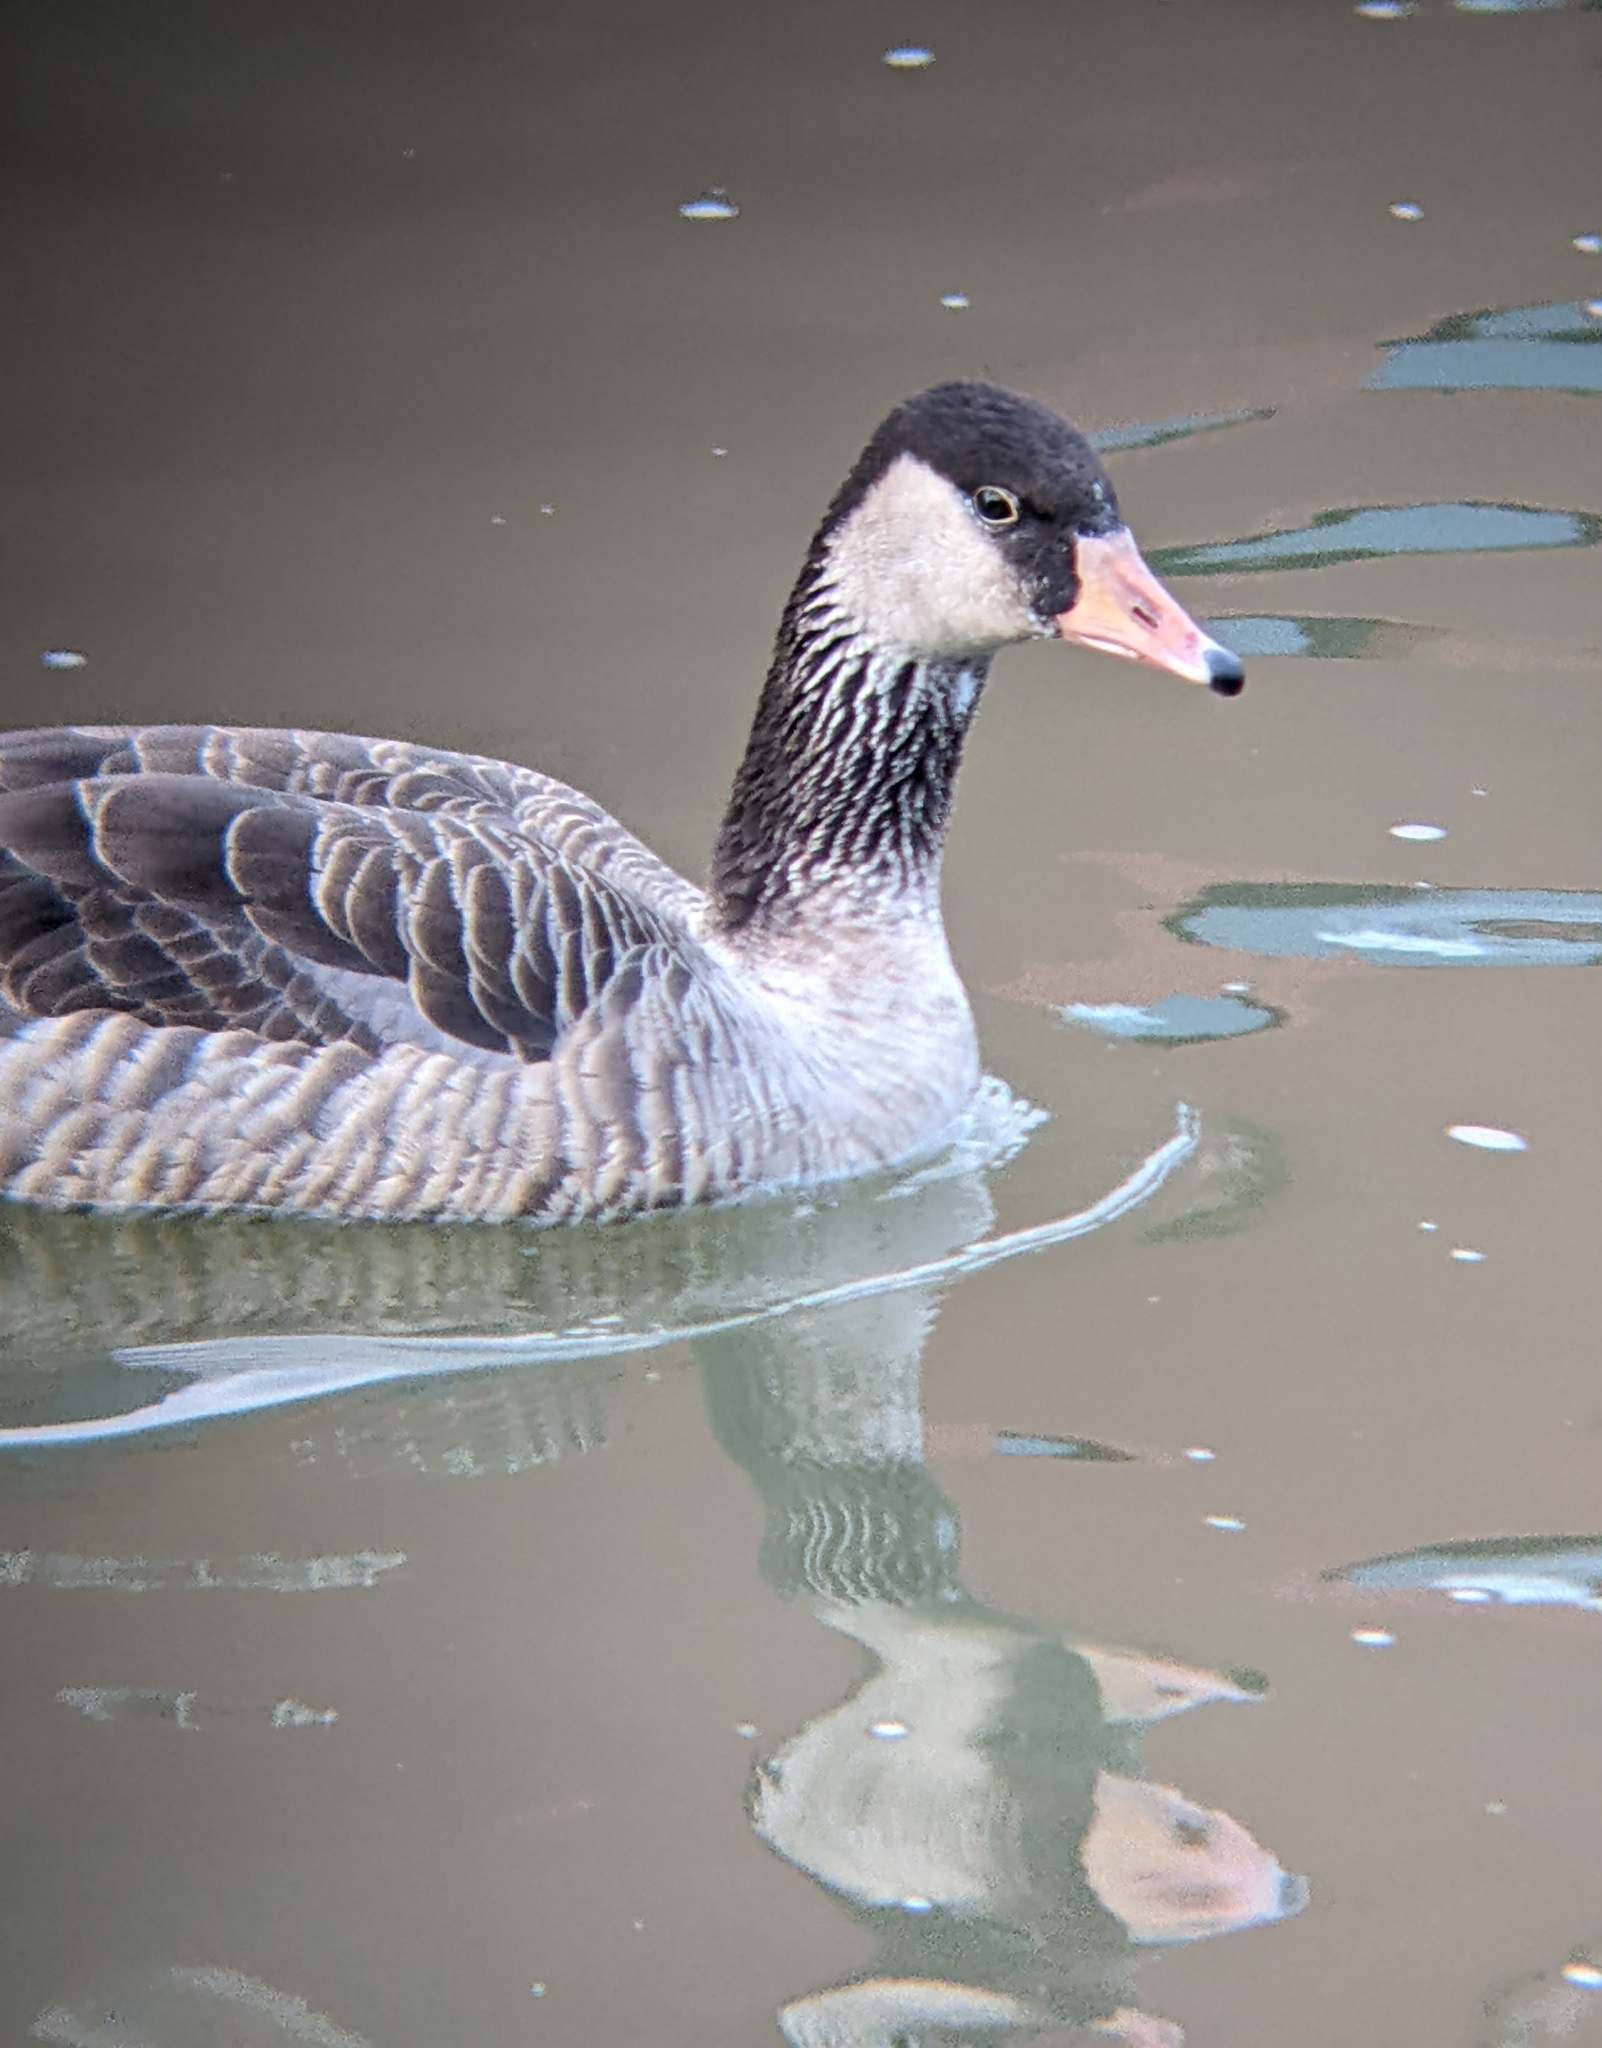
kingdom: Animalia
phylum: Chordata
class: Aves
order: Anseriformes
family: Anatidae
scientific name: Anatidae
